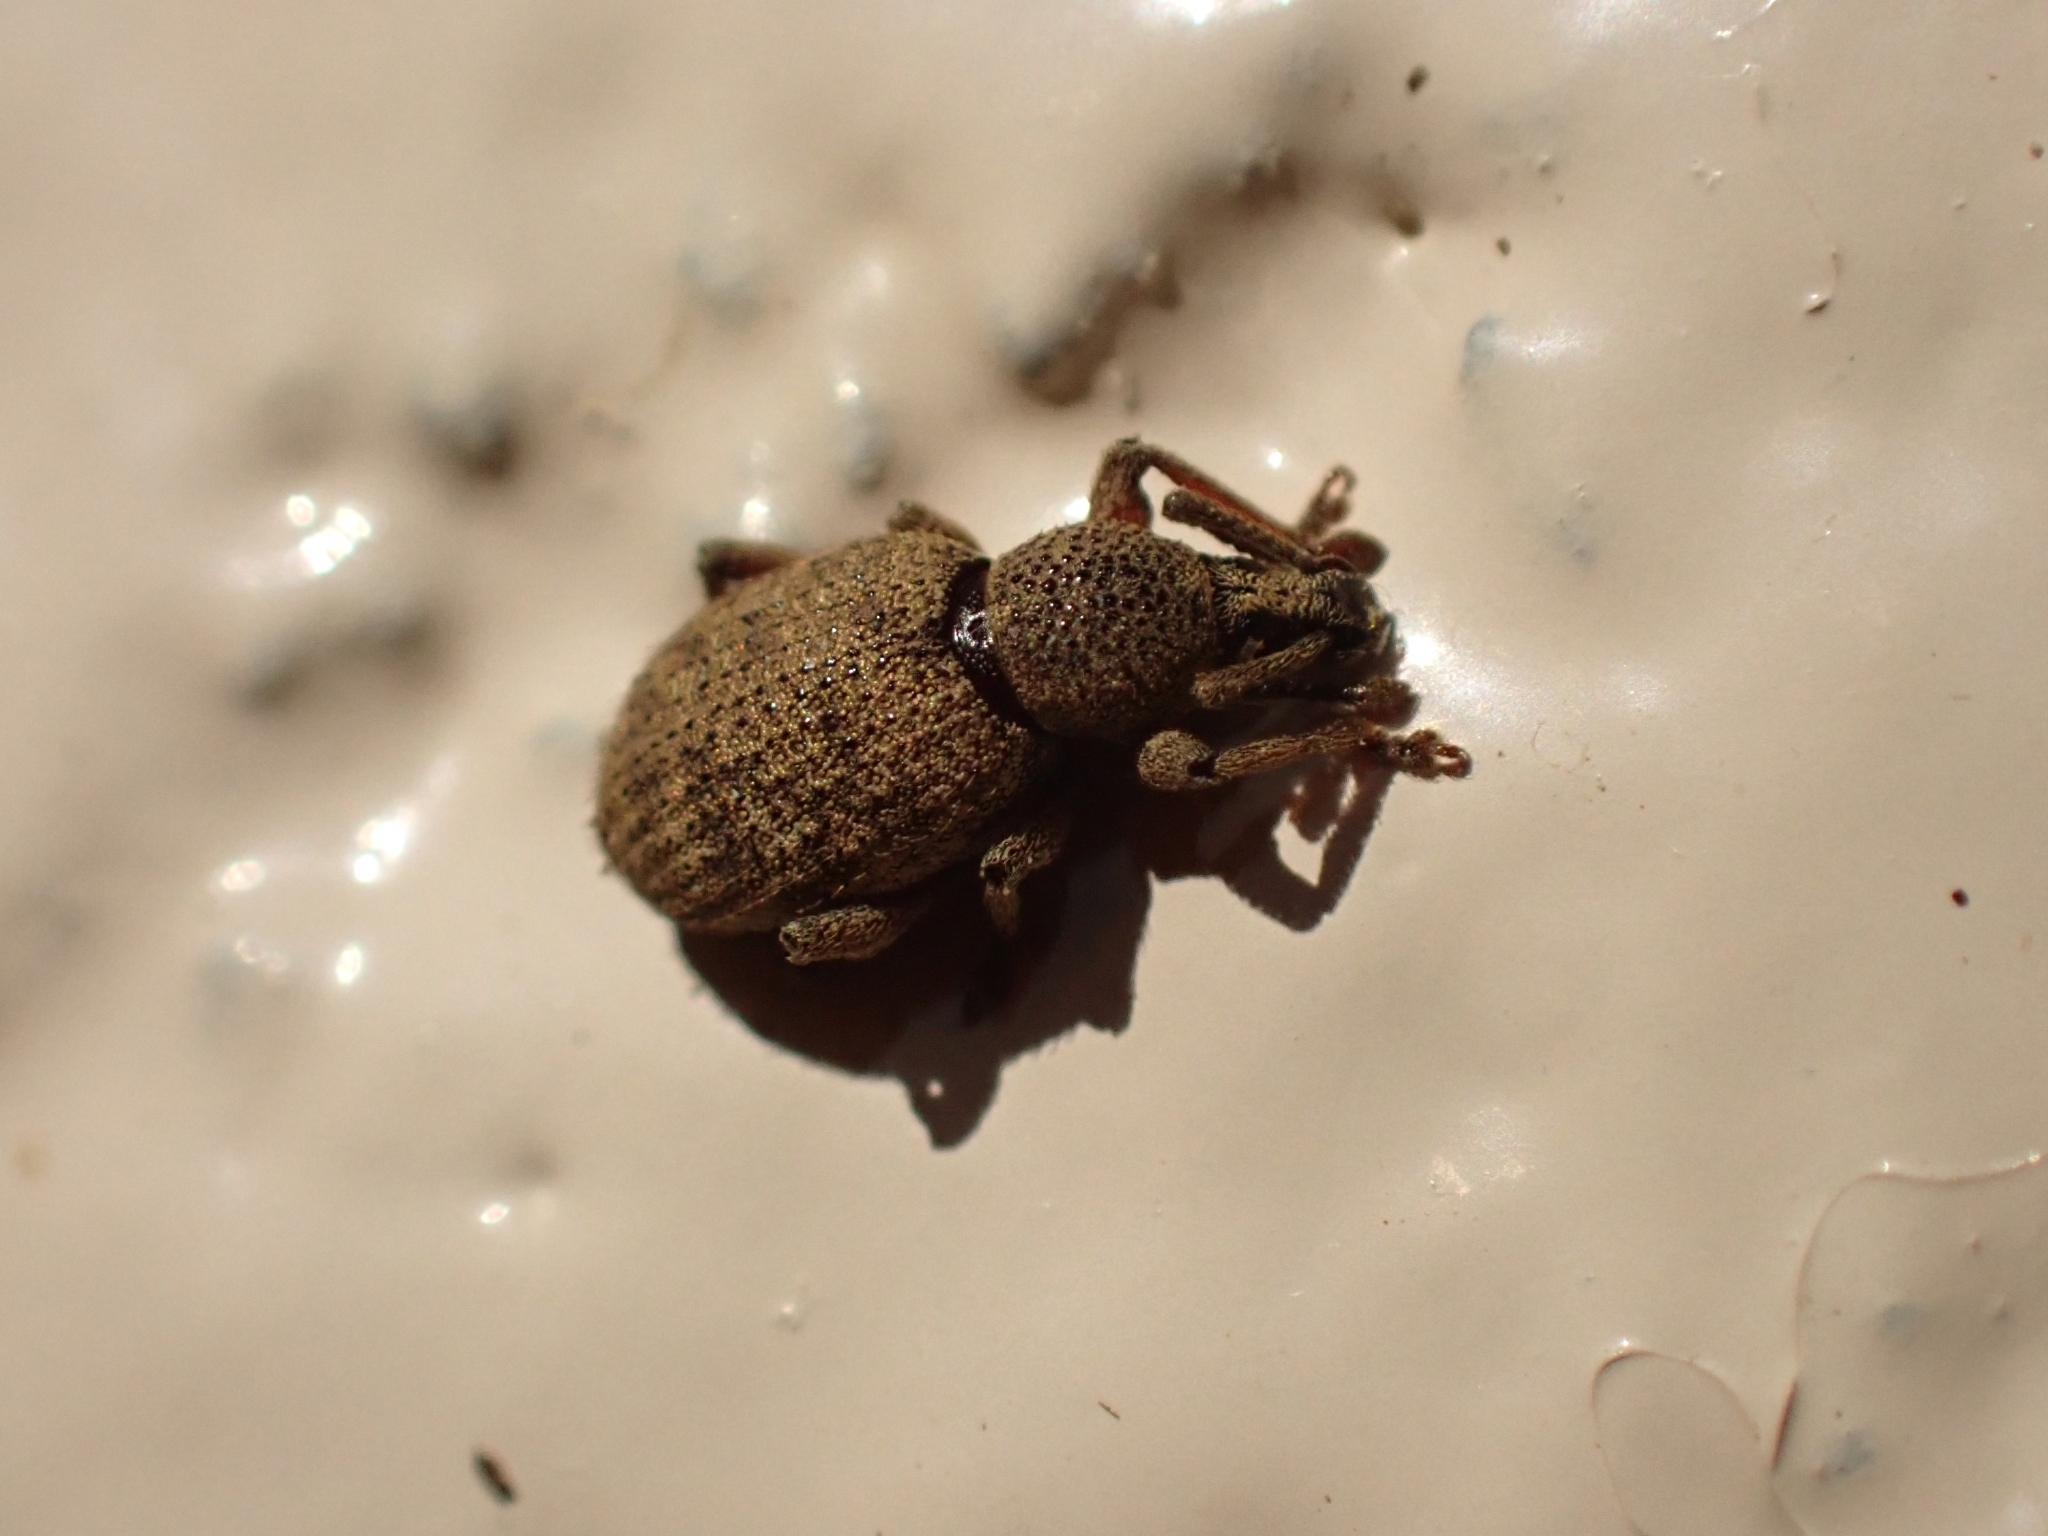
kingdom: Animalia
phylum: Arthropoda
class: Insecta
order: Coleoptera
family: Curculionidae
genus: Otiorhynchus
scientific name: Otiorhynchus singularis
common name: Clay-coloured weevil
